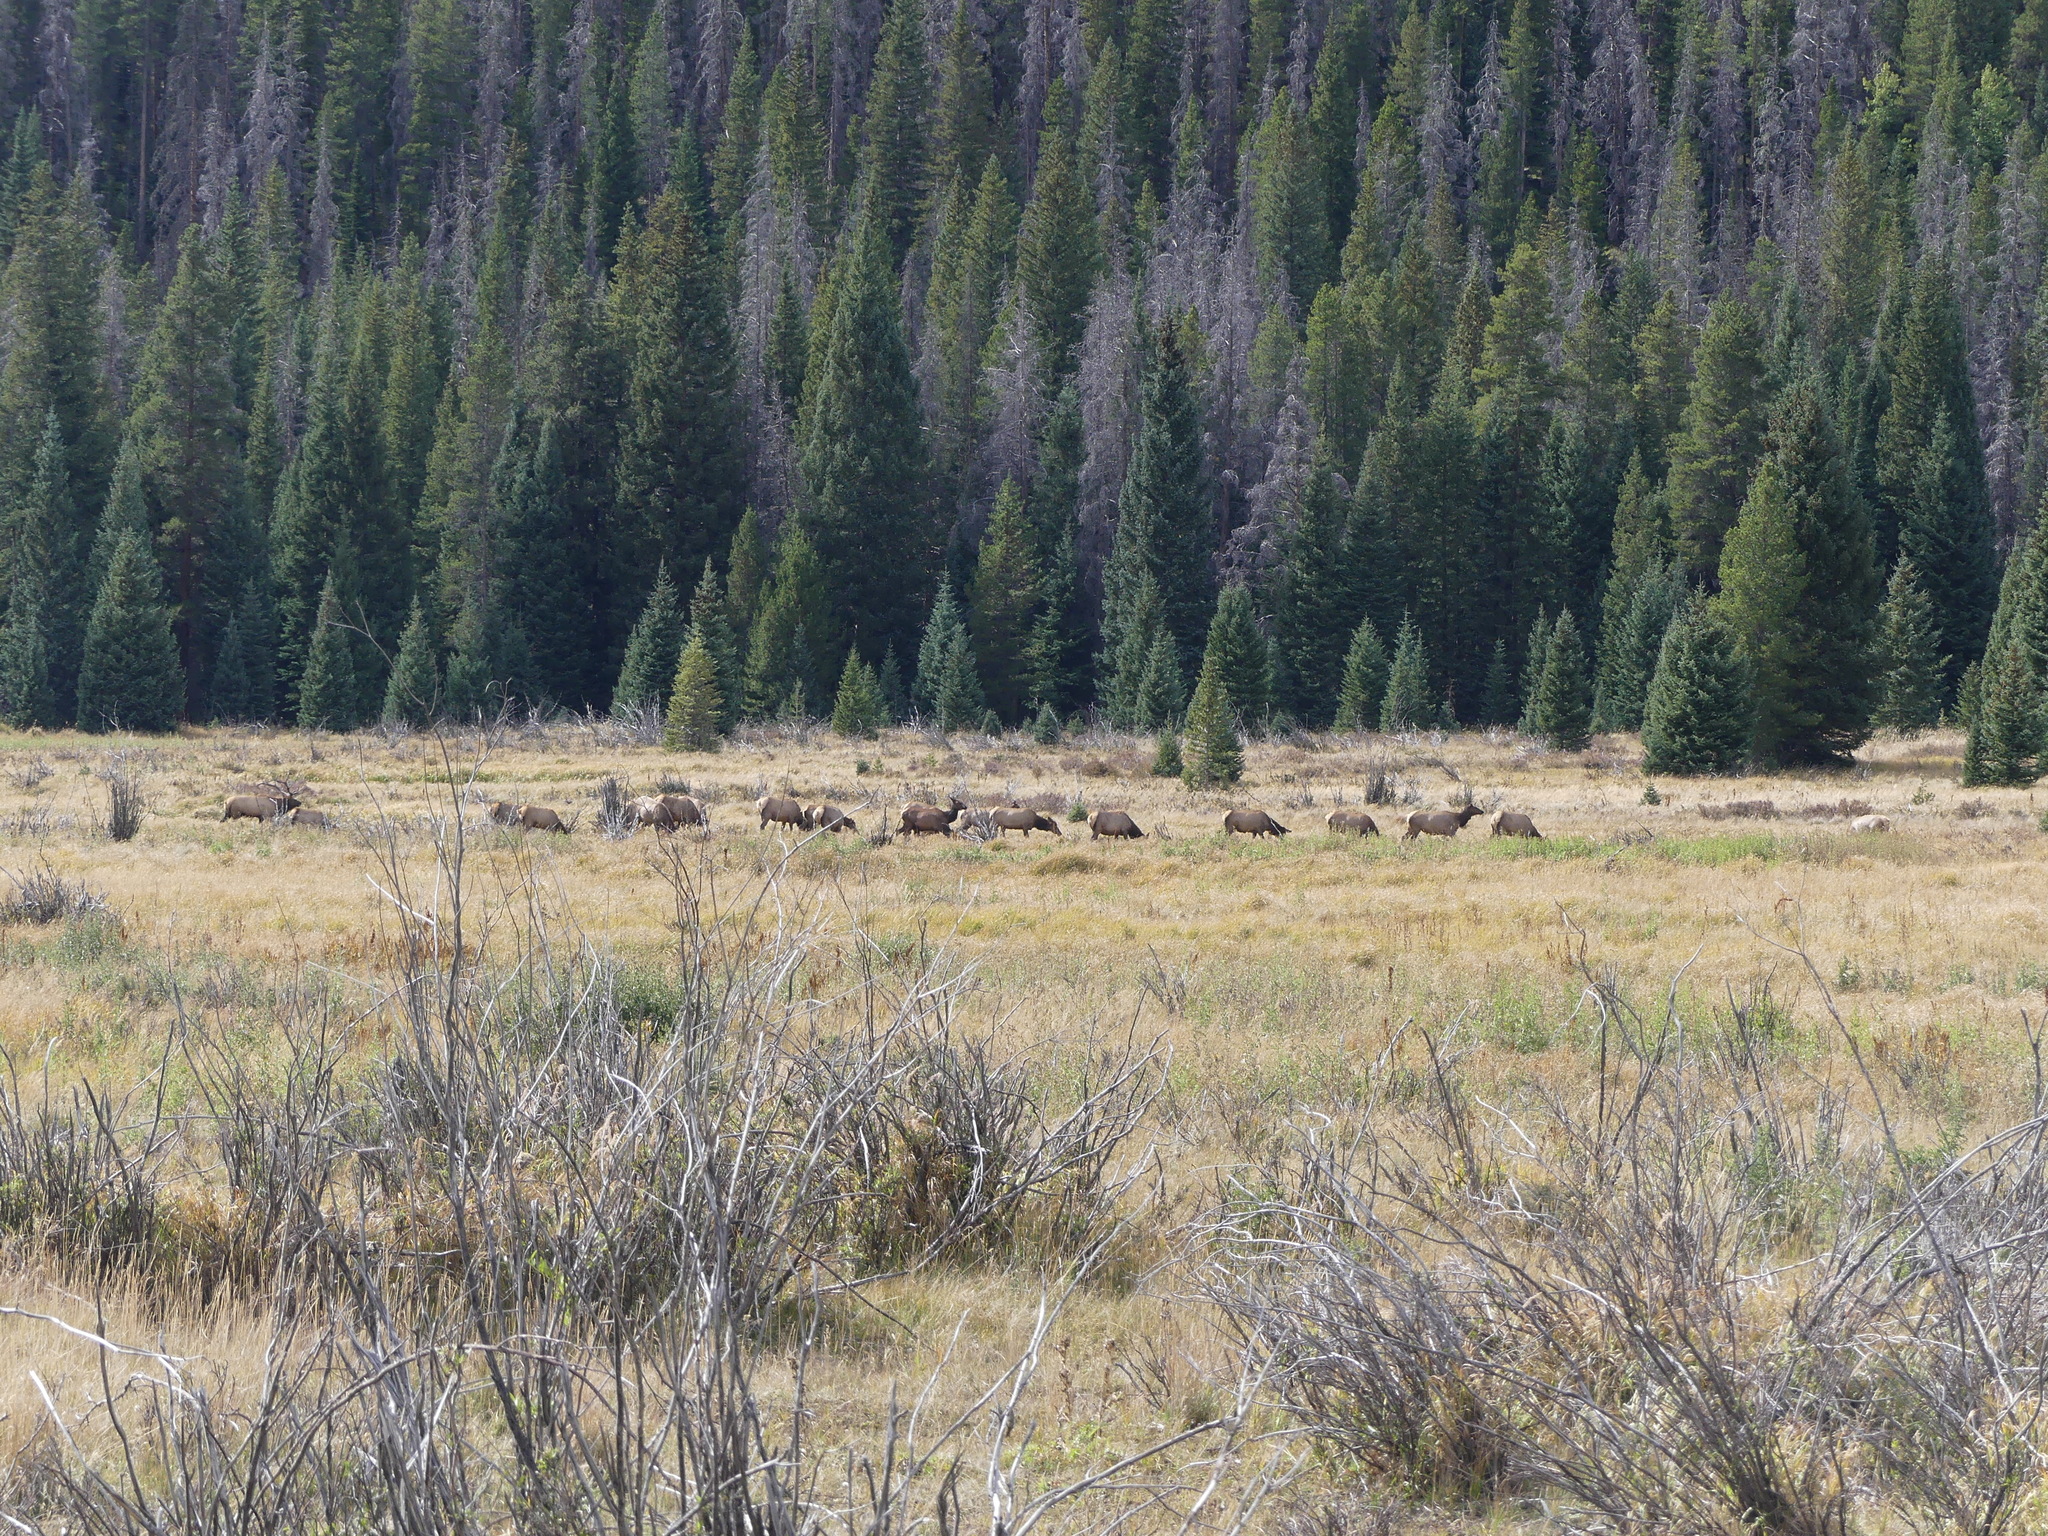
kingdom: Animalia
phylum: Chordata
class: Mammalia
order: Artiodactyla
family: Cervidae
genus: Cervus
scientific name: Cervus elaphus
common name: Red deer
